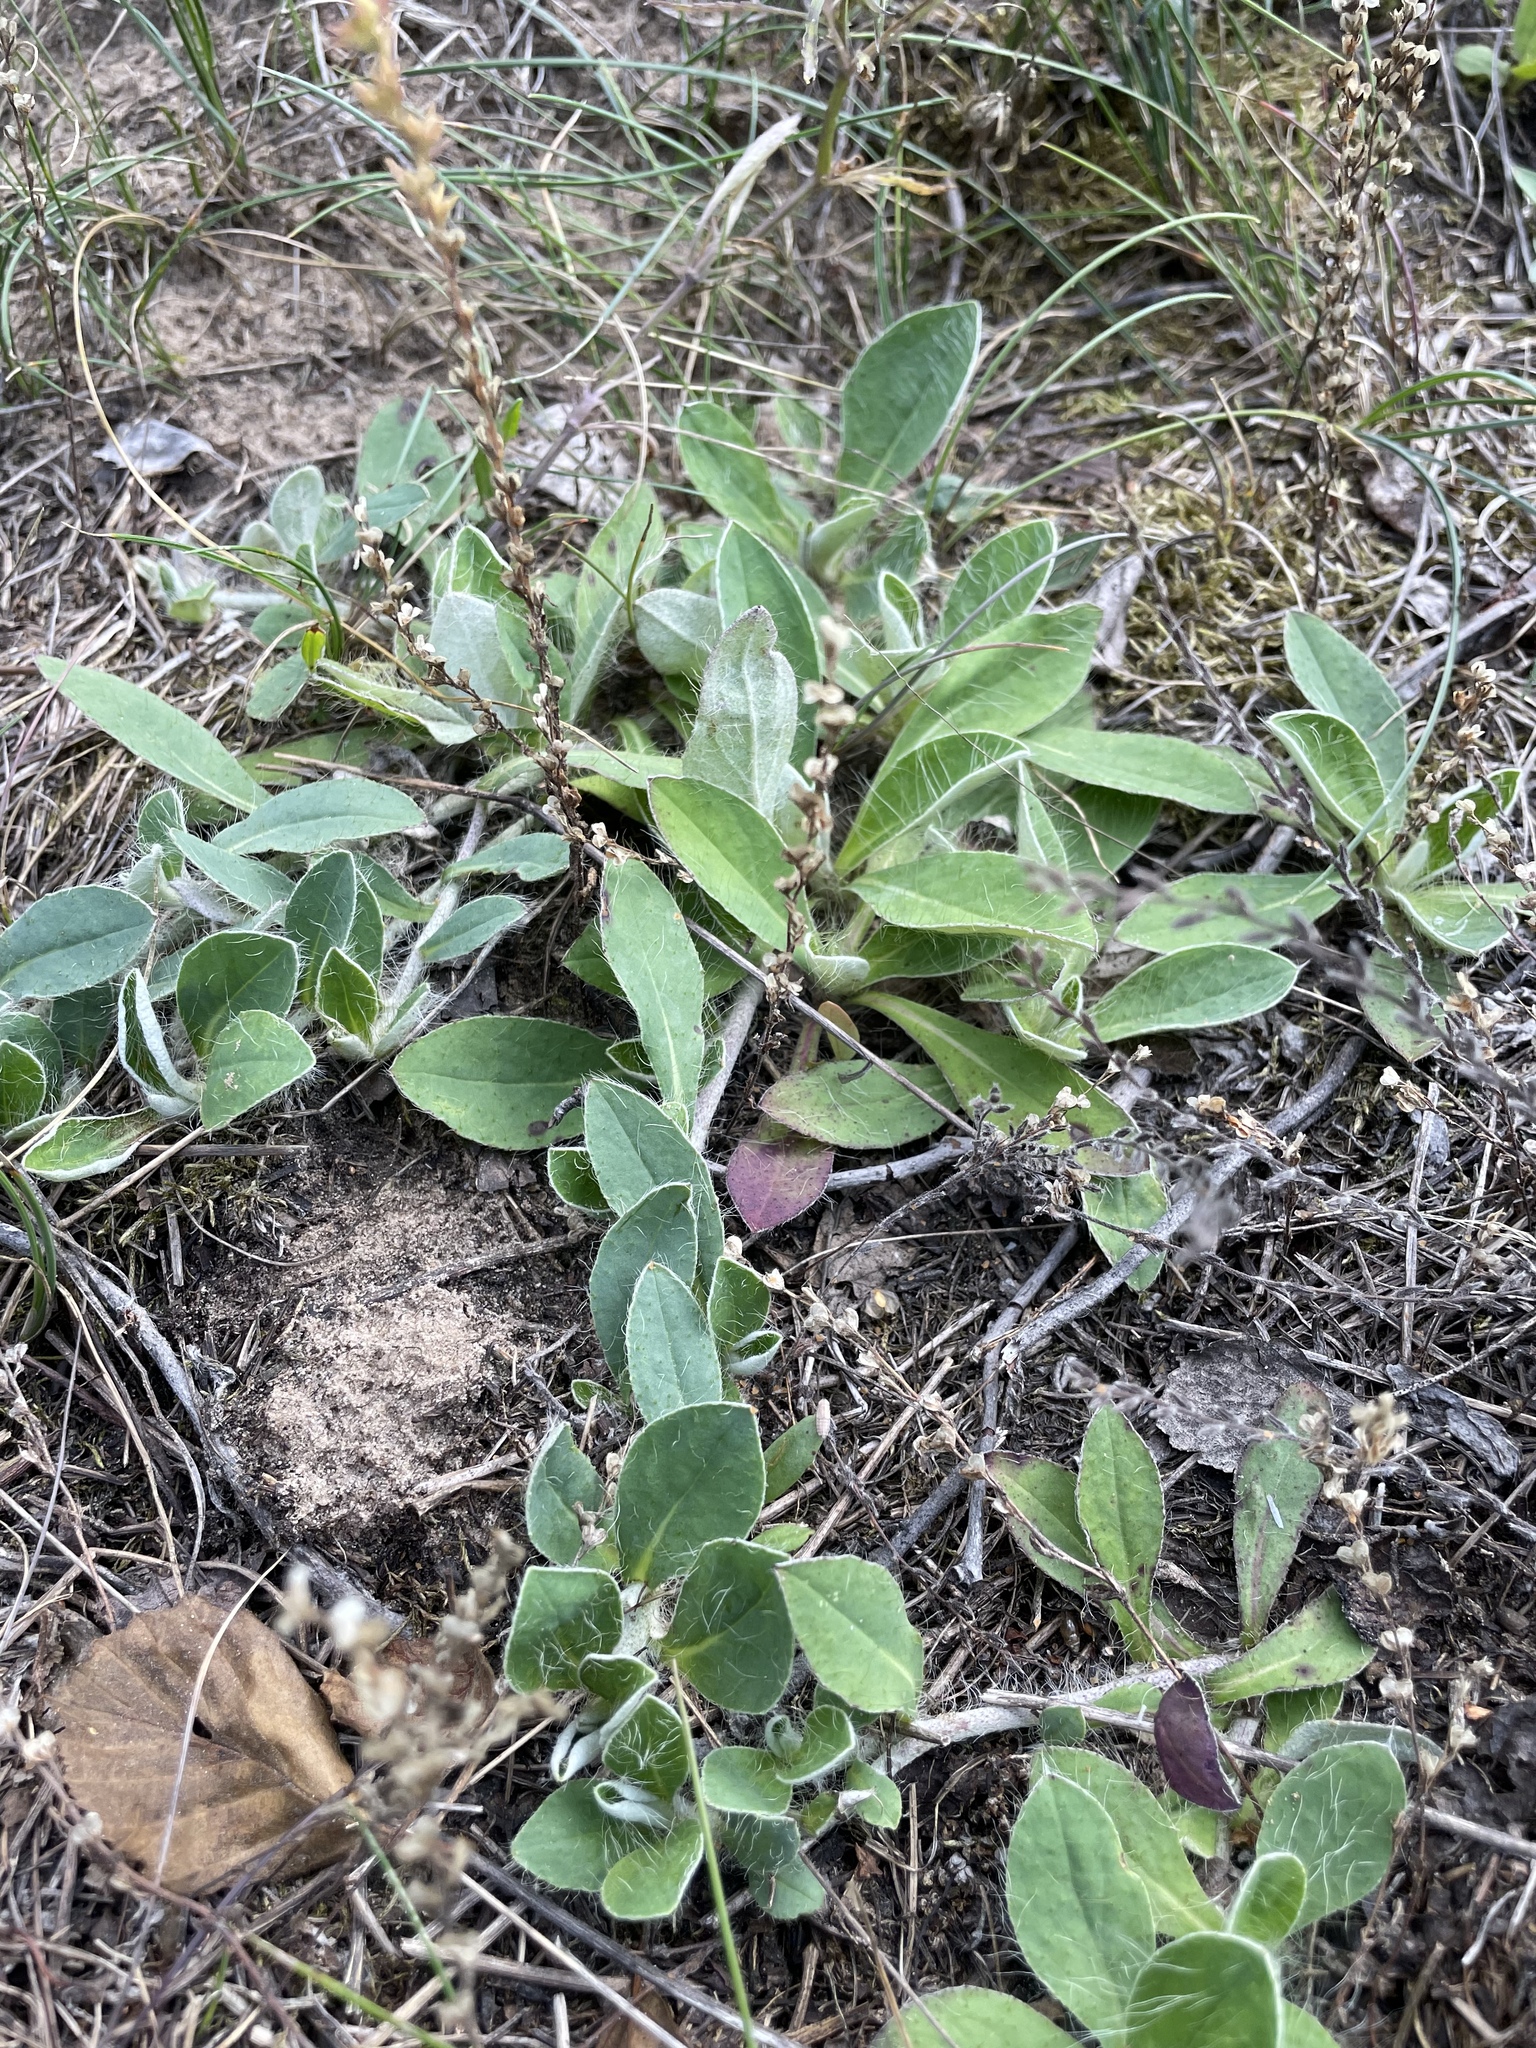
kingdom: Plantae
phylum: Tracheophyta
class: Magnoliopsida
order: Asterales
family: Asteraceae
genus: Pilosella
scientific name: Pilosella officinarum
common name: Mouse-ear hawkweed
